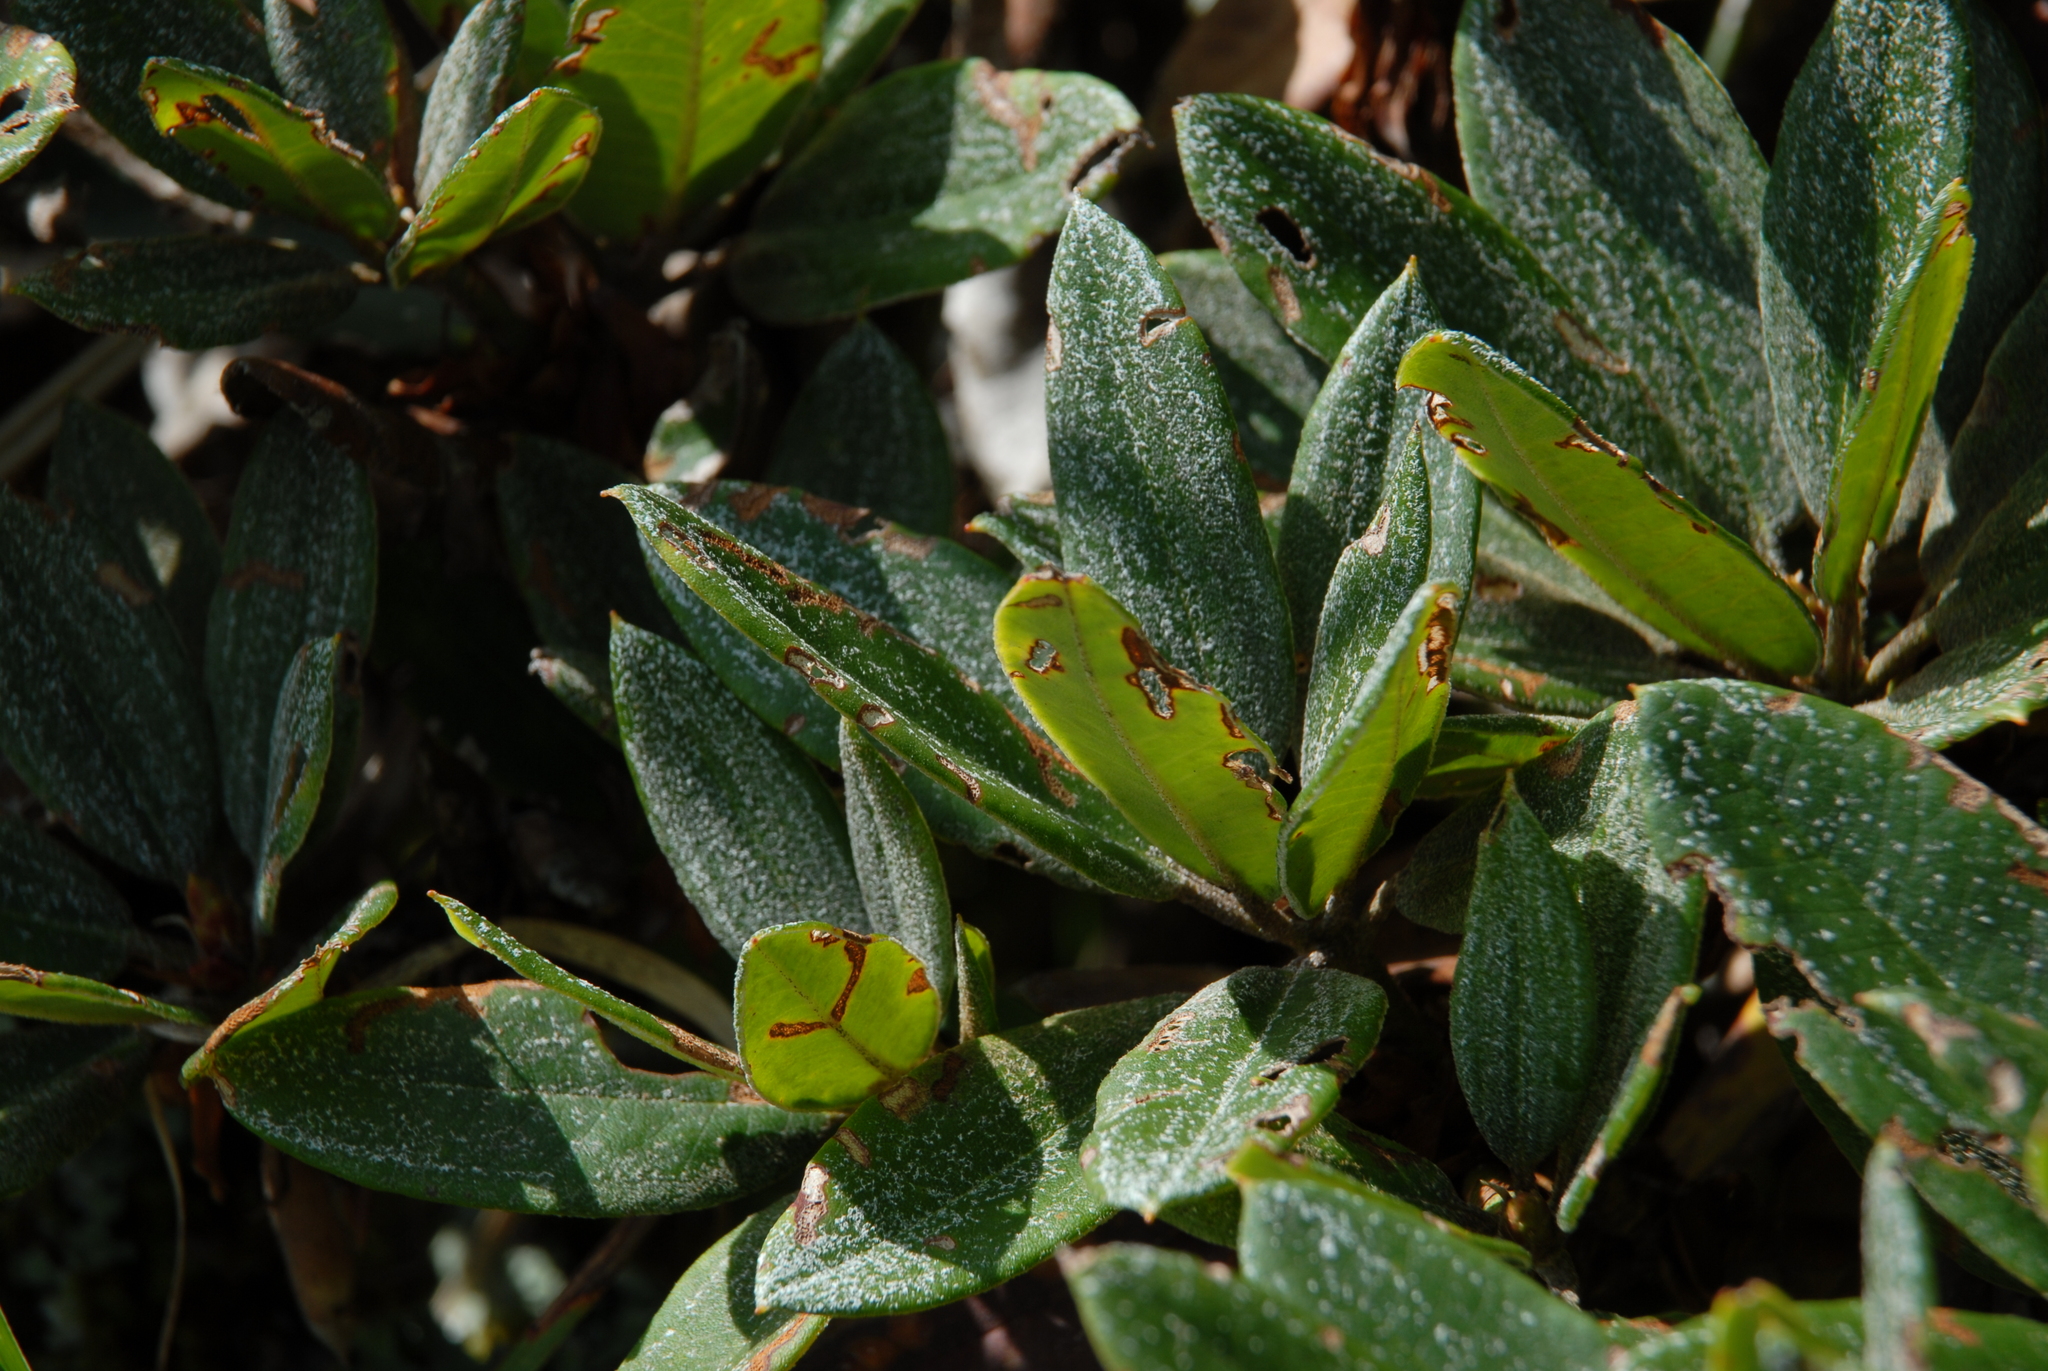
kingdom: Plantae
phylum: Tracheophyta
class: Magnoliopsida
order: Ericales
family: Ericaceae
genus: Rhododendron
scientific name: Rhododendron pseudochrysanthum
